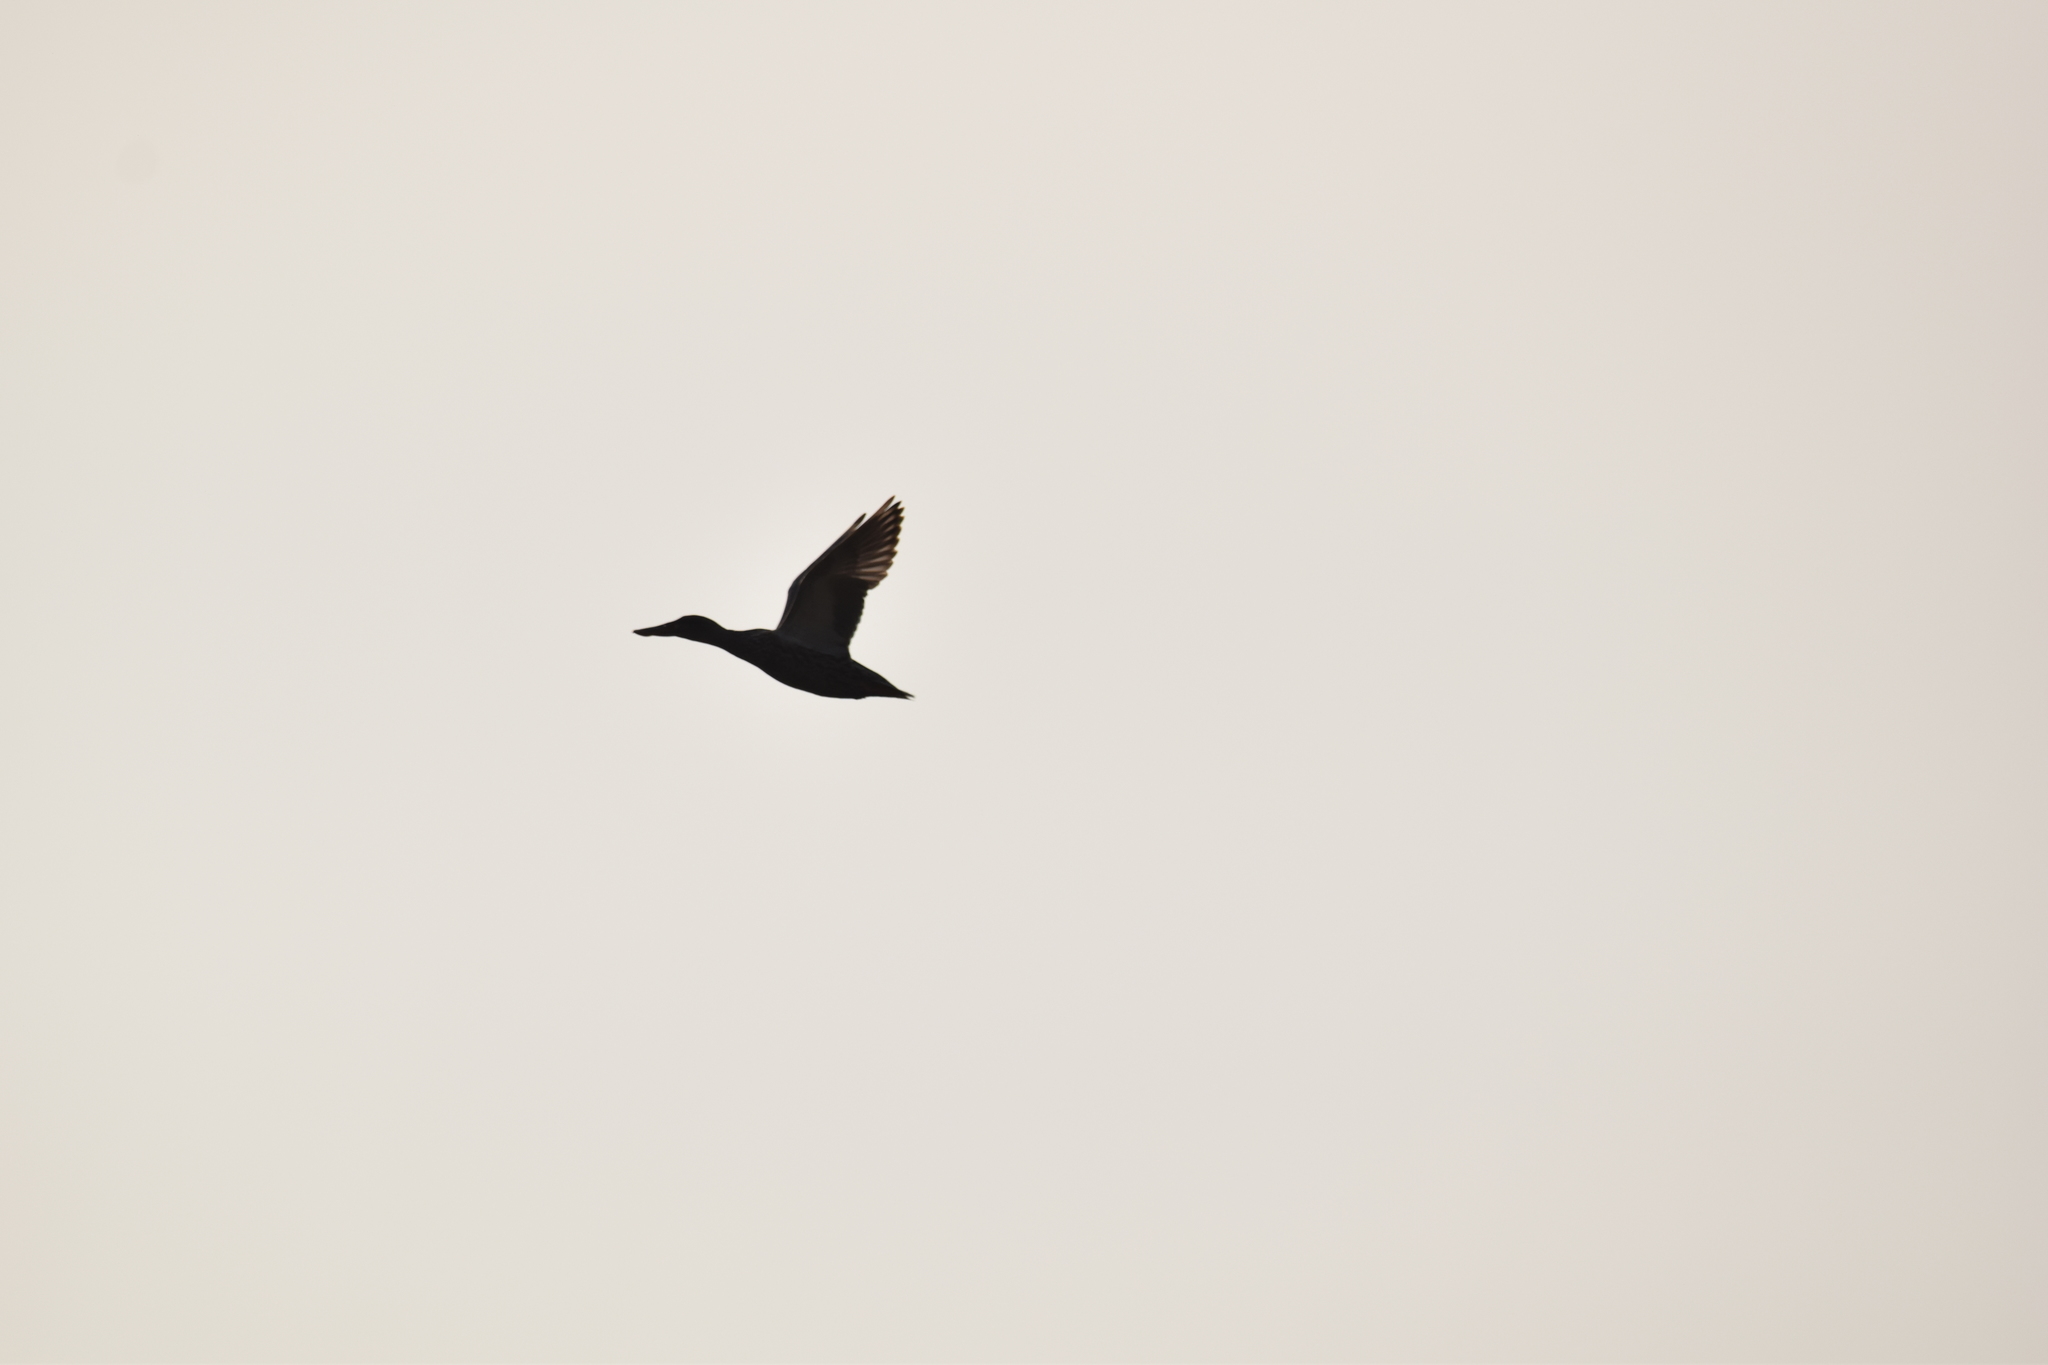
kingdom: Animalia
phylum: Chordata
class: Aves
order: Anseriformes
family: Anatidae
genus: Spatula
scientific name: Spatula clypeata
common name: Northern shoveler
